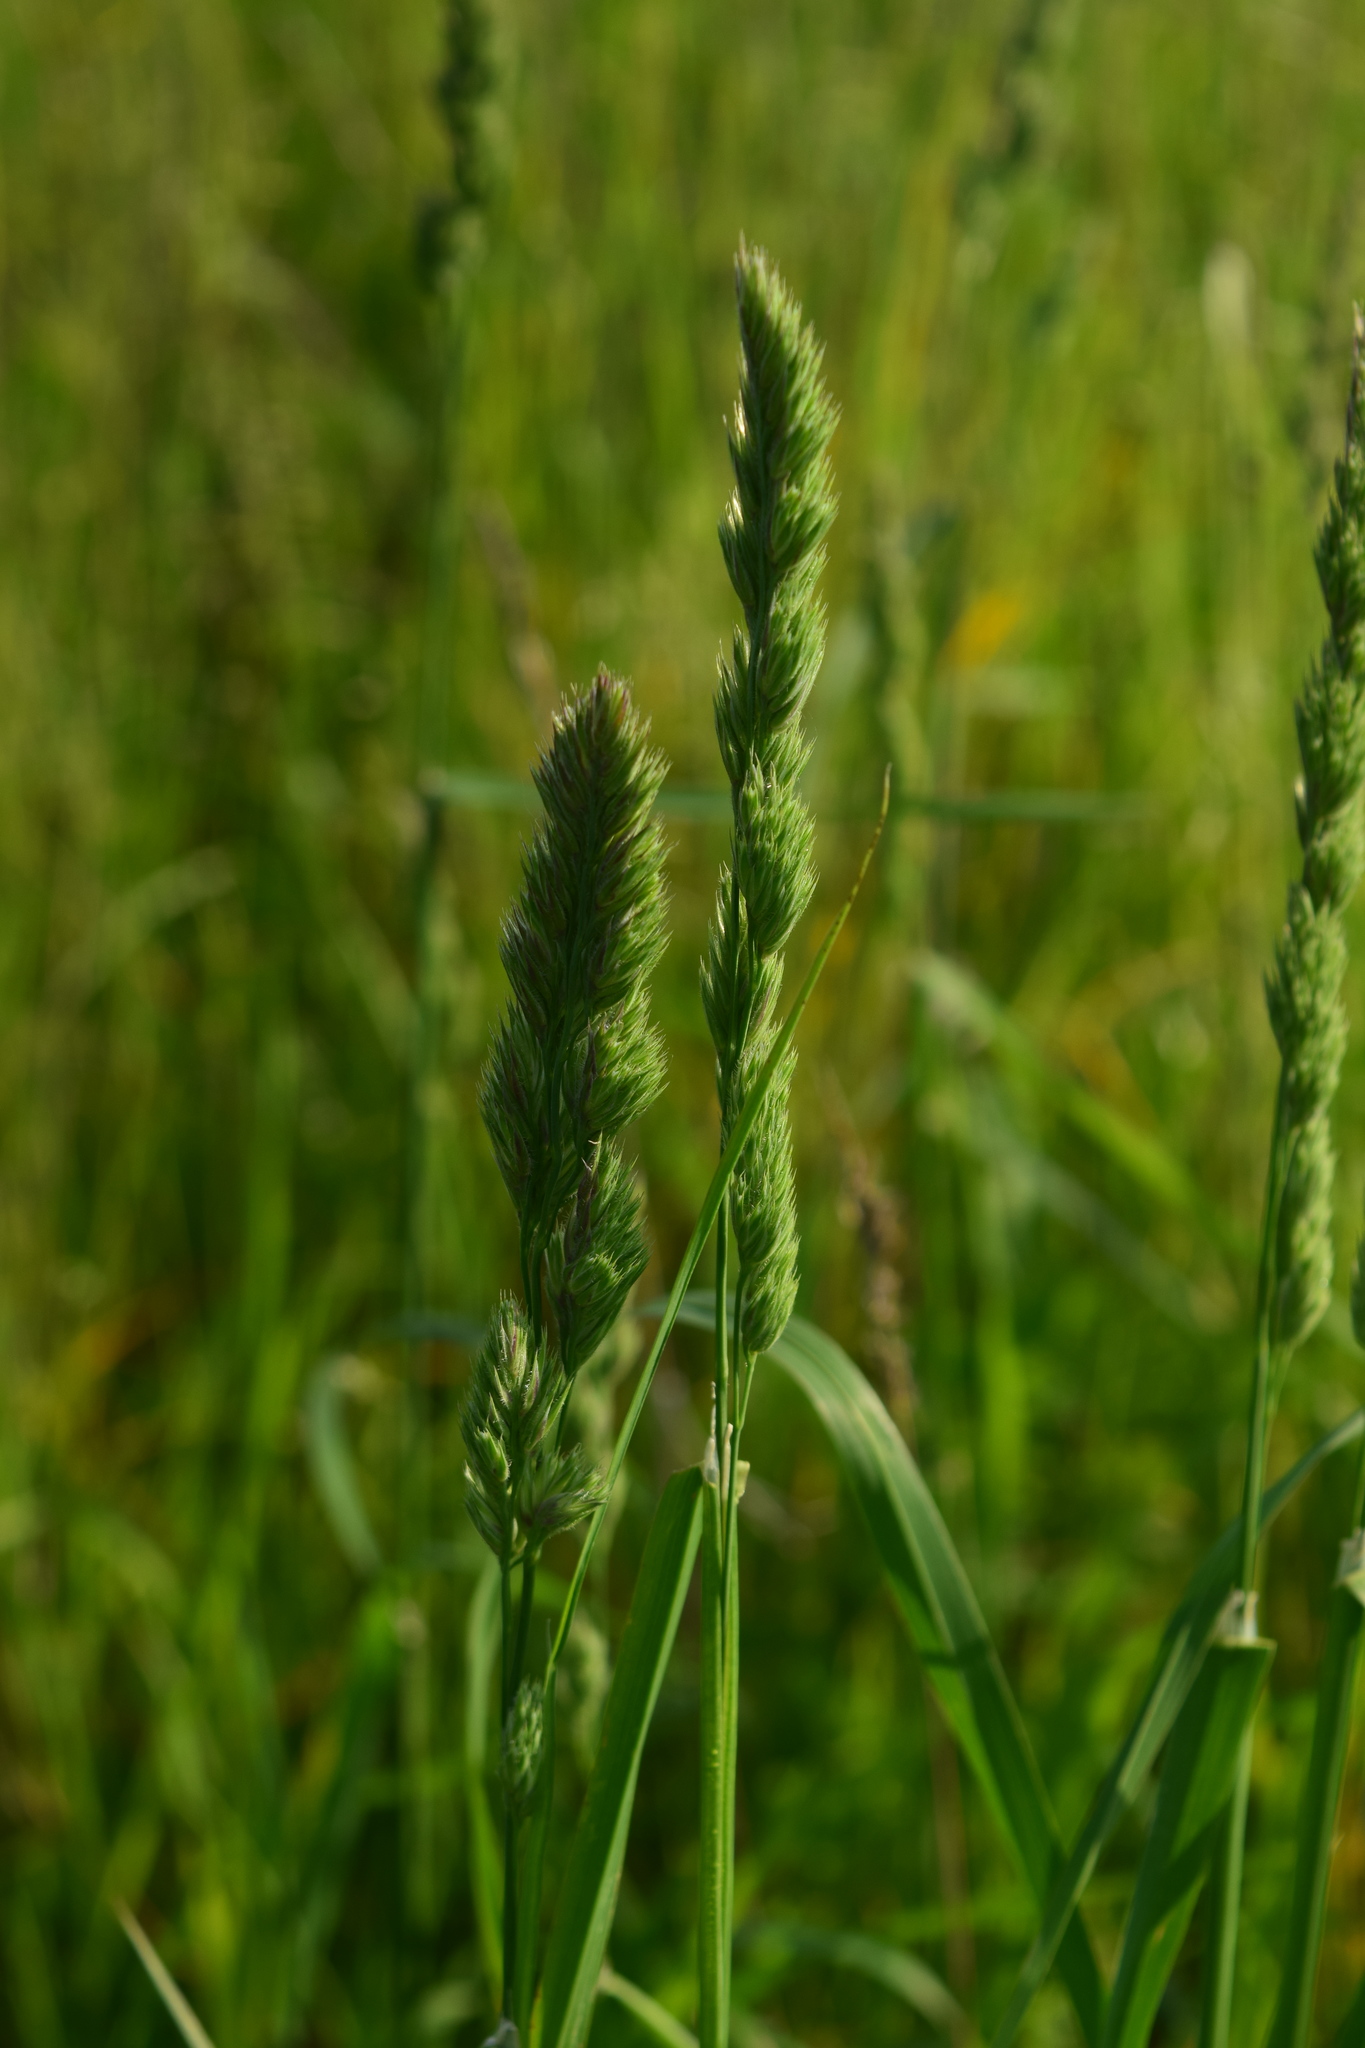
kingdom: Plantae
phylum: Tracheophyta
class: Liliopsida
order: Poales
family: Poaceae
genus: Dactylis
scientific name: Dactylis glomerata
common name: Orchardgrass
